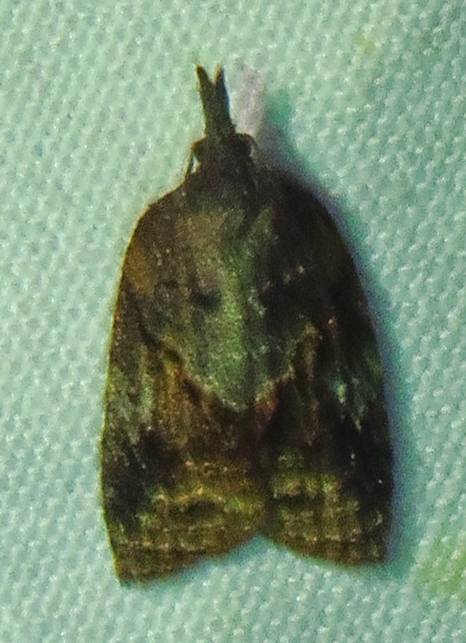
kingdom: Animalia
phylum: Arthropoda
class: Insecta
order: Lepidoptera
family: Tortricidae
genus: Platynota
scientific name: Platynota idaeusalis
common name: Tufted apple bud moth
